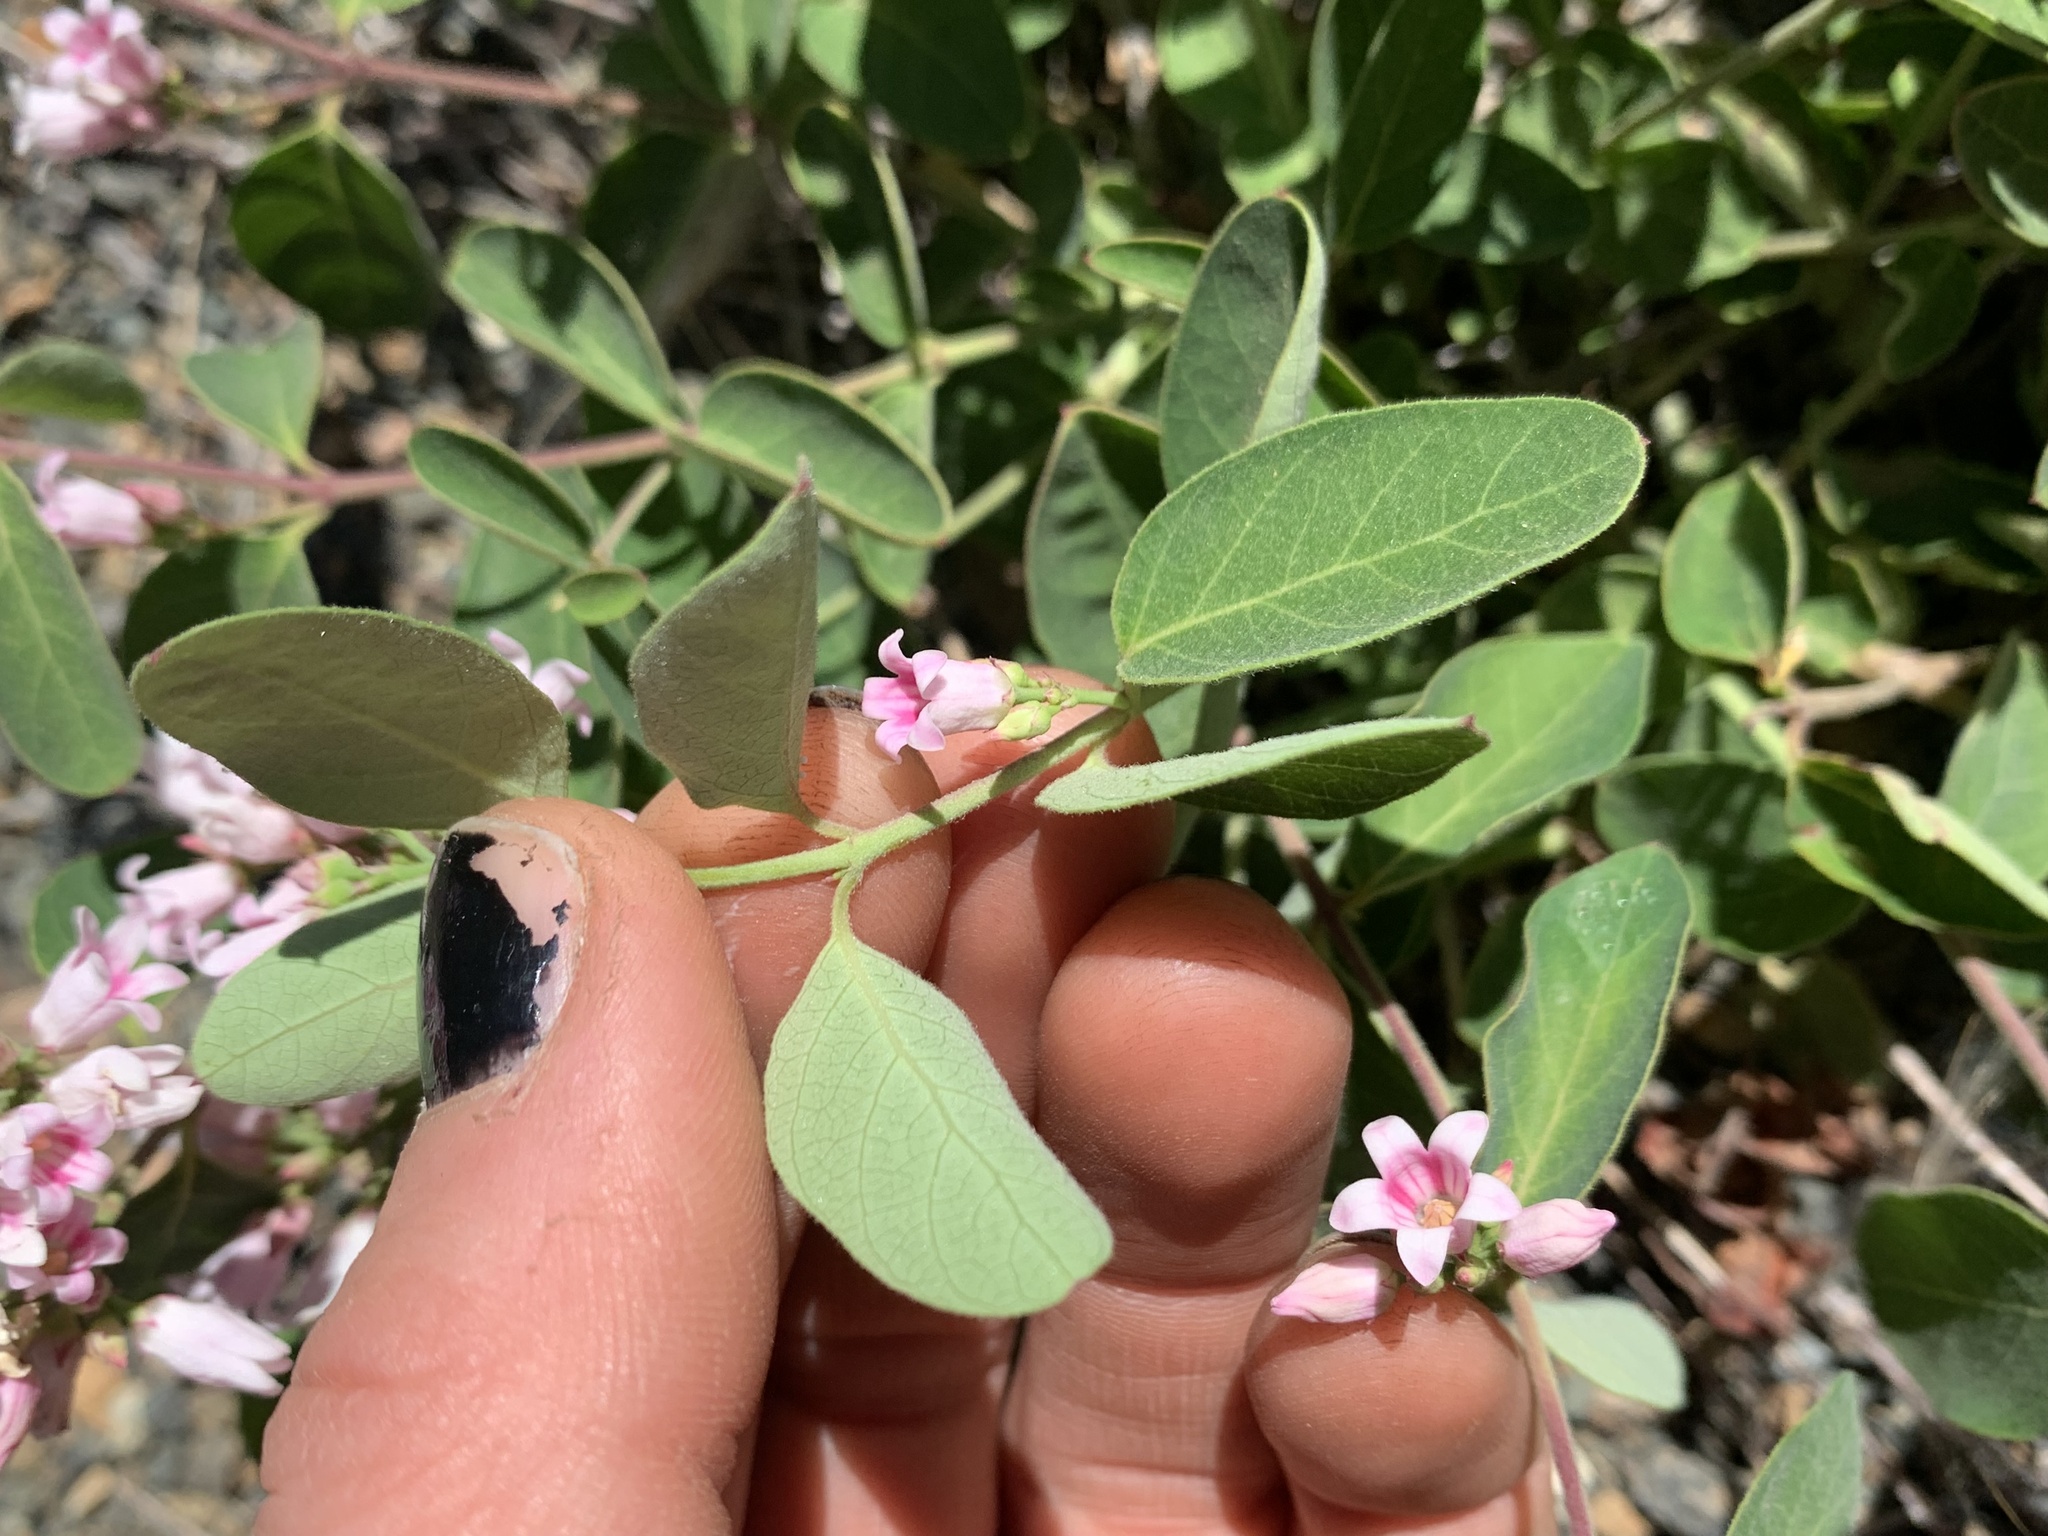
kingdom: Plantae
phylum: Tracheophyta
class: Magnoliopsida
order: Gentianales
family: Apocynaceae
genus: Apocynum
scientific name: Apocynum androsaemifolium
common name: Spreading dogbane
